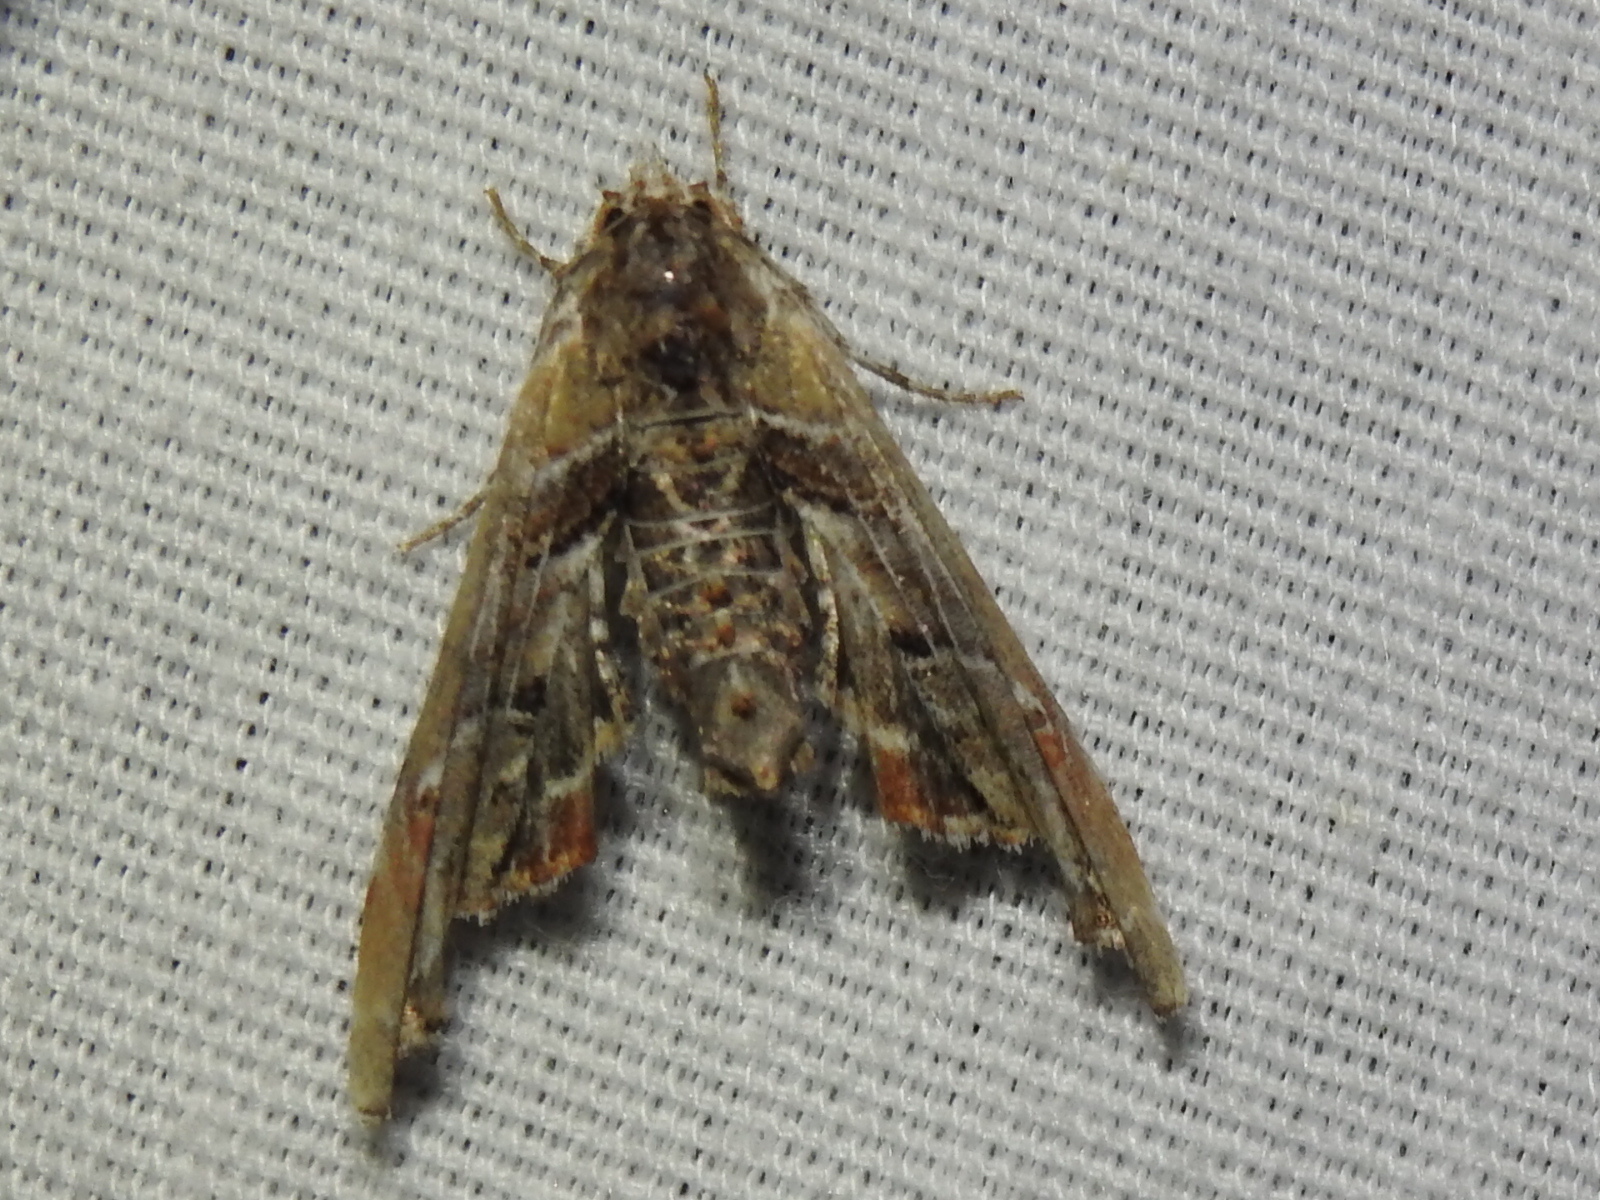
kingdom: Animalia
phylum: Arthropoda
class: Insecta
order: Lepidoptera
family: Euteliidae
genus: Marathyssa
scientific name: Marathyssa basalis
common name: Light marathyssa moth
